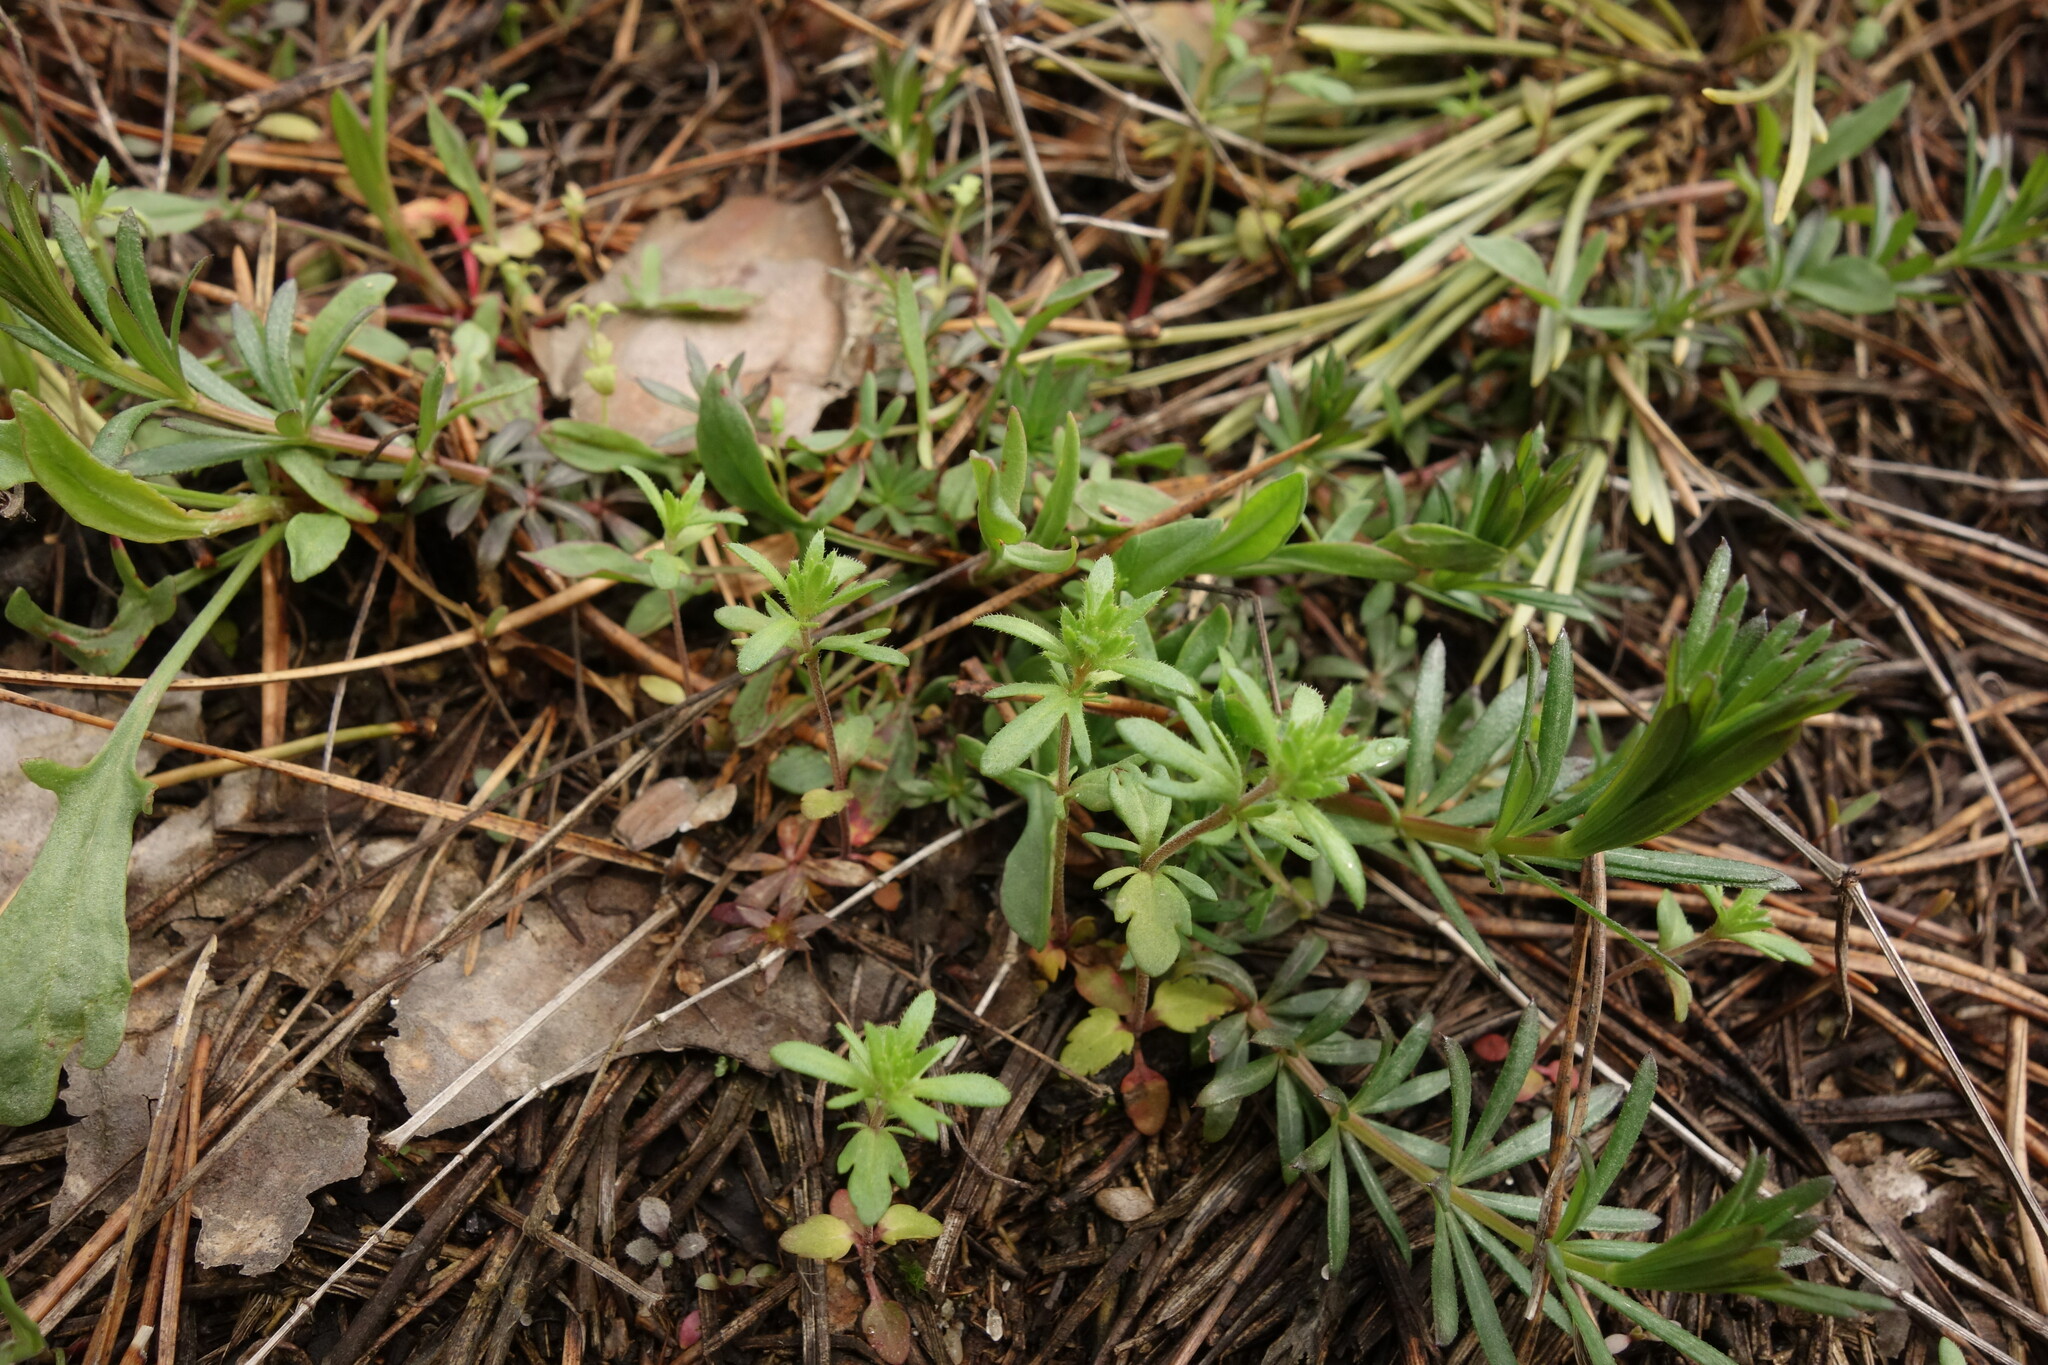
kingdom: Plantae
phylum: Tracheophyta
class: Magnoliopsida
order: Lamiales
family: Plantaginaceae
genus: Veronica
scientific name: Veronica verna
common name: Spring speedwell
